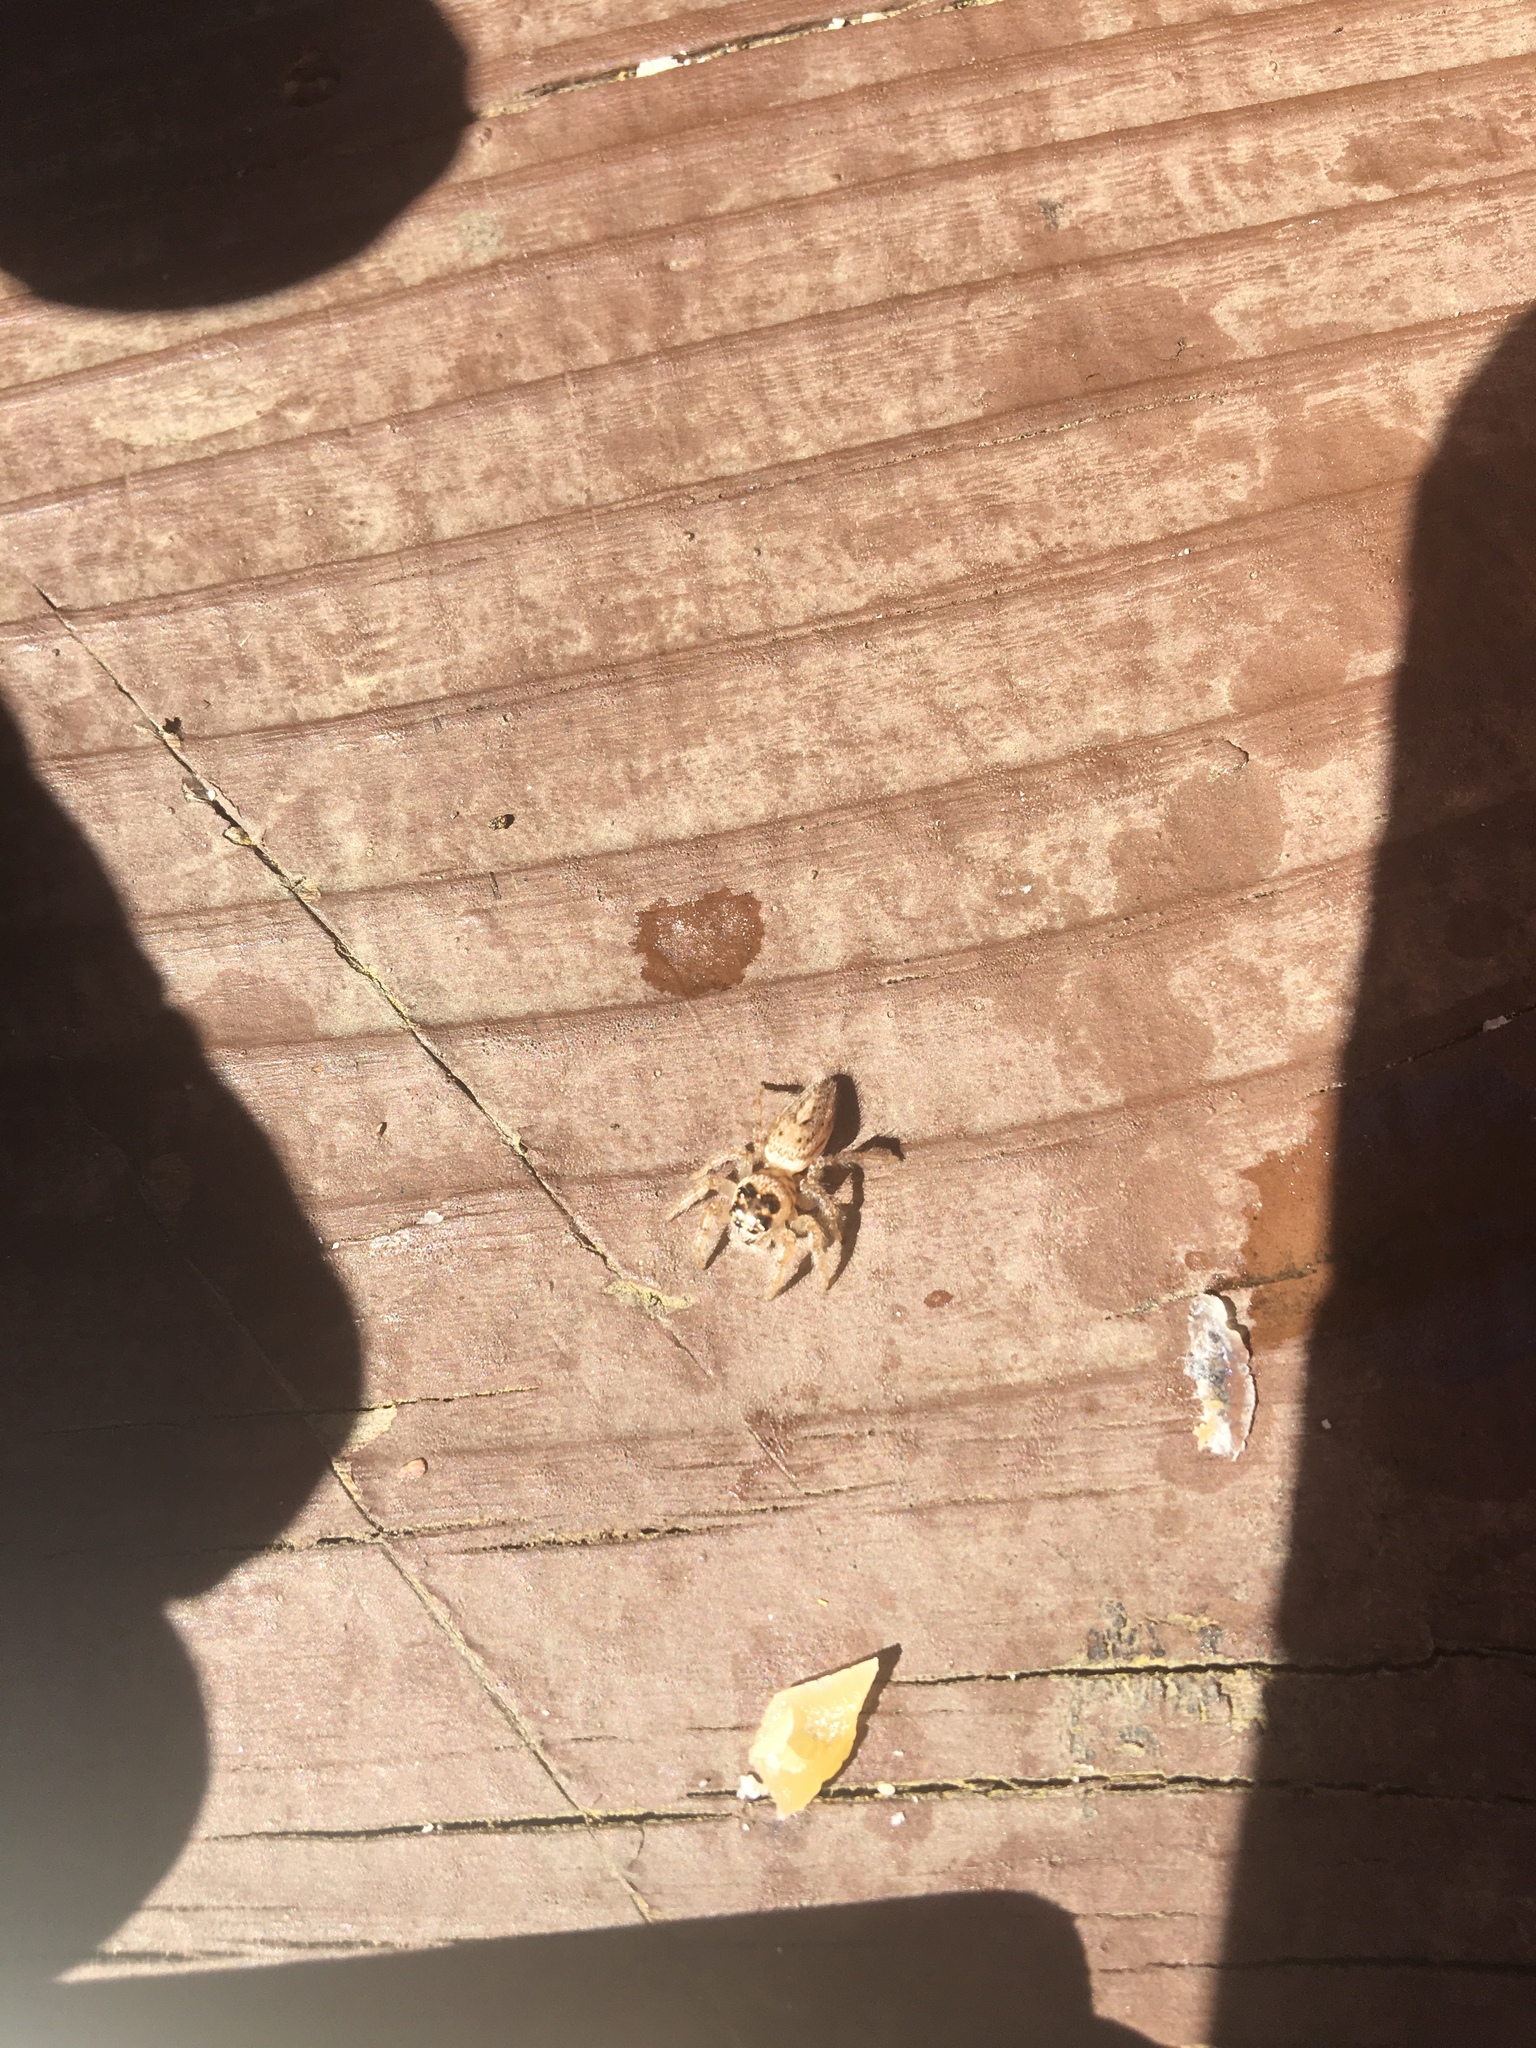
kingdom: Animalia
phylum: Arthropoda
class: Arachnida
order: Araneae
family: Salticidae
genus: Colonus
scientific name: Colonus hesperus
